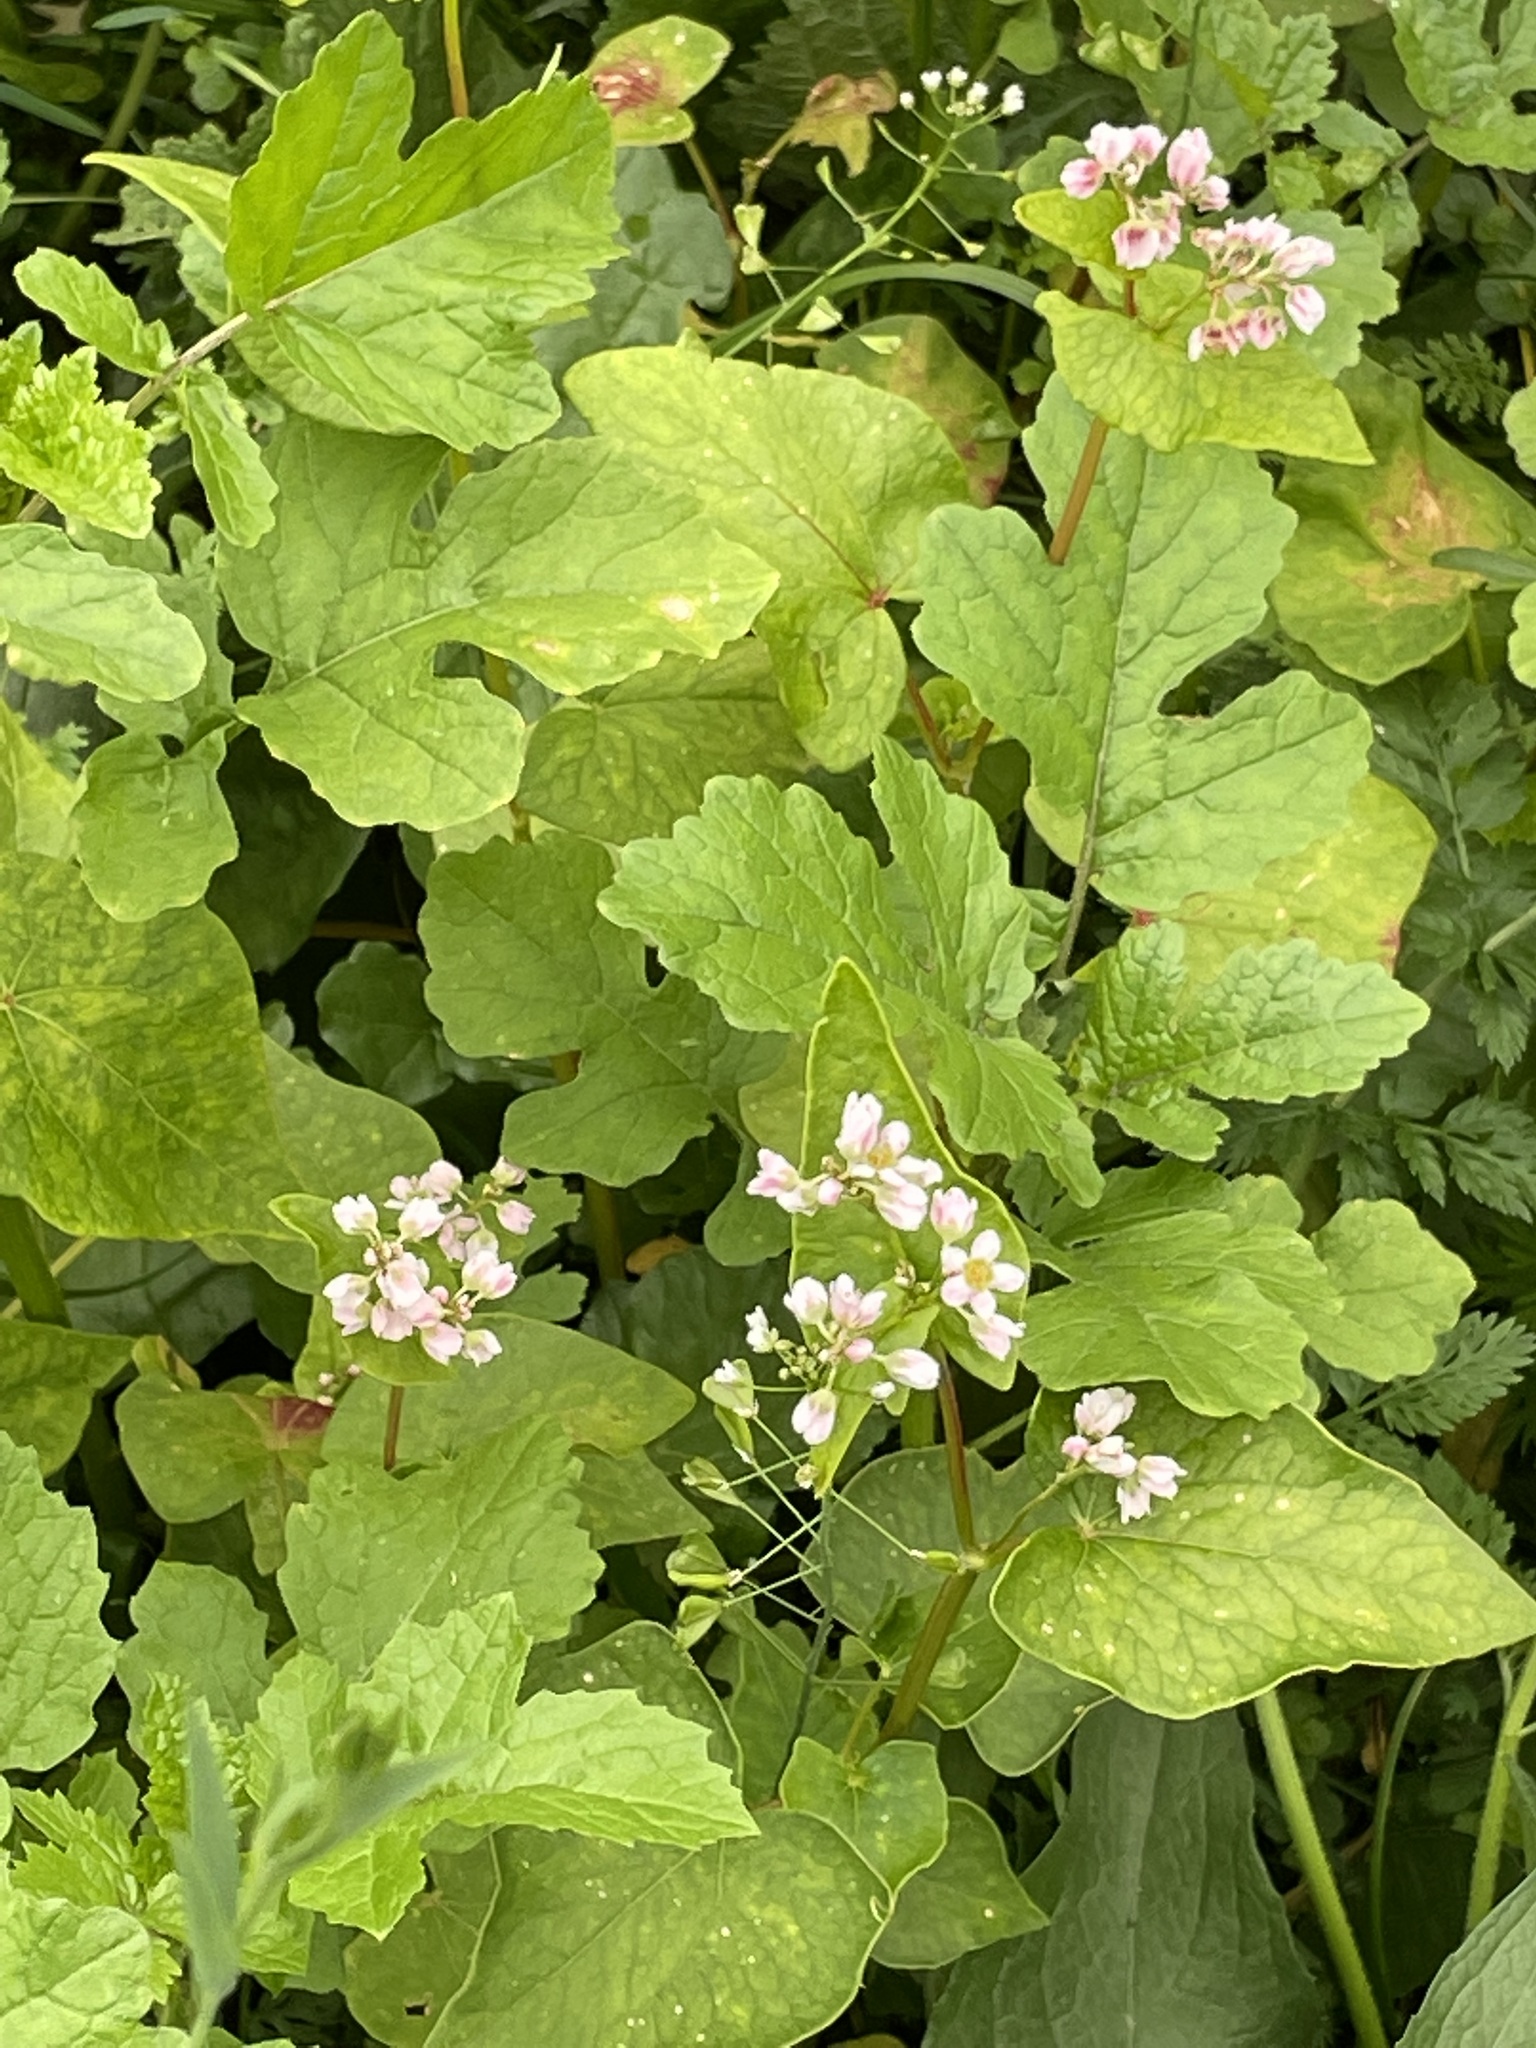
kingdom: Plantae
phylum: Tracheophyta
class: Magnoliopsida
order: Caryophyllales
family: Polygonaceae
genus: Fagopyrum
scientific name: Fagopyrum esculentum
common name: Buckwheat
